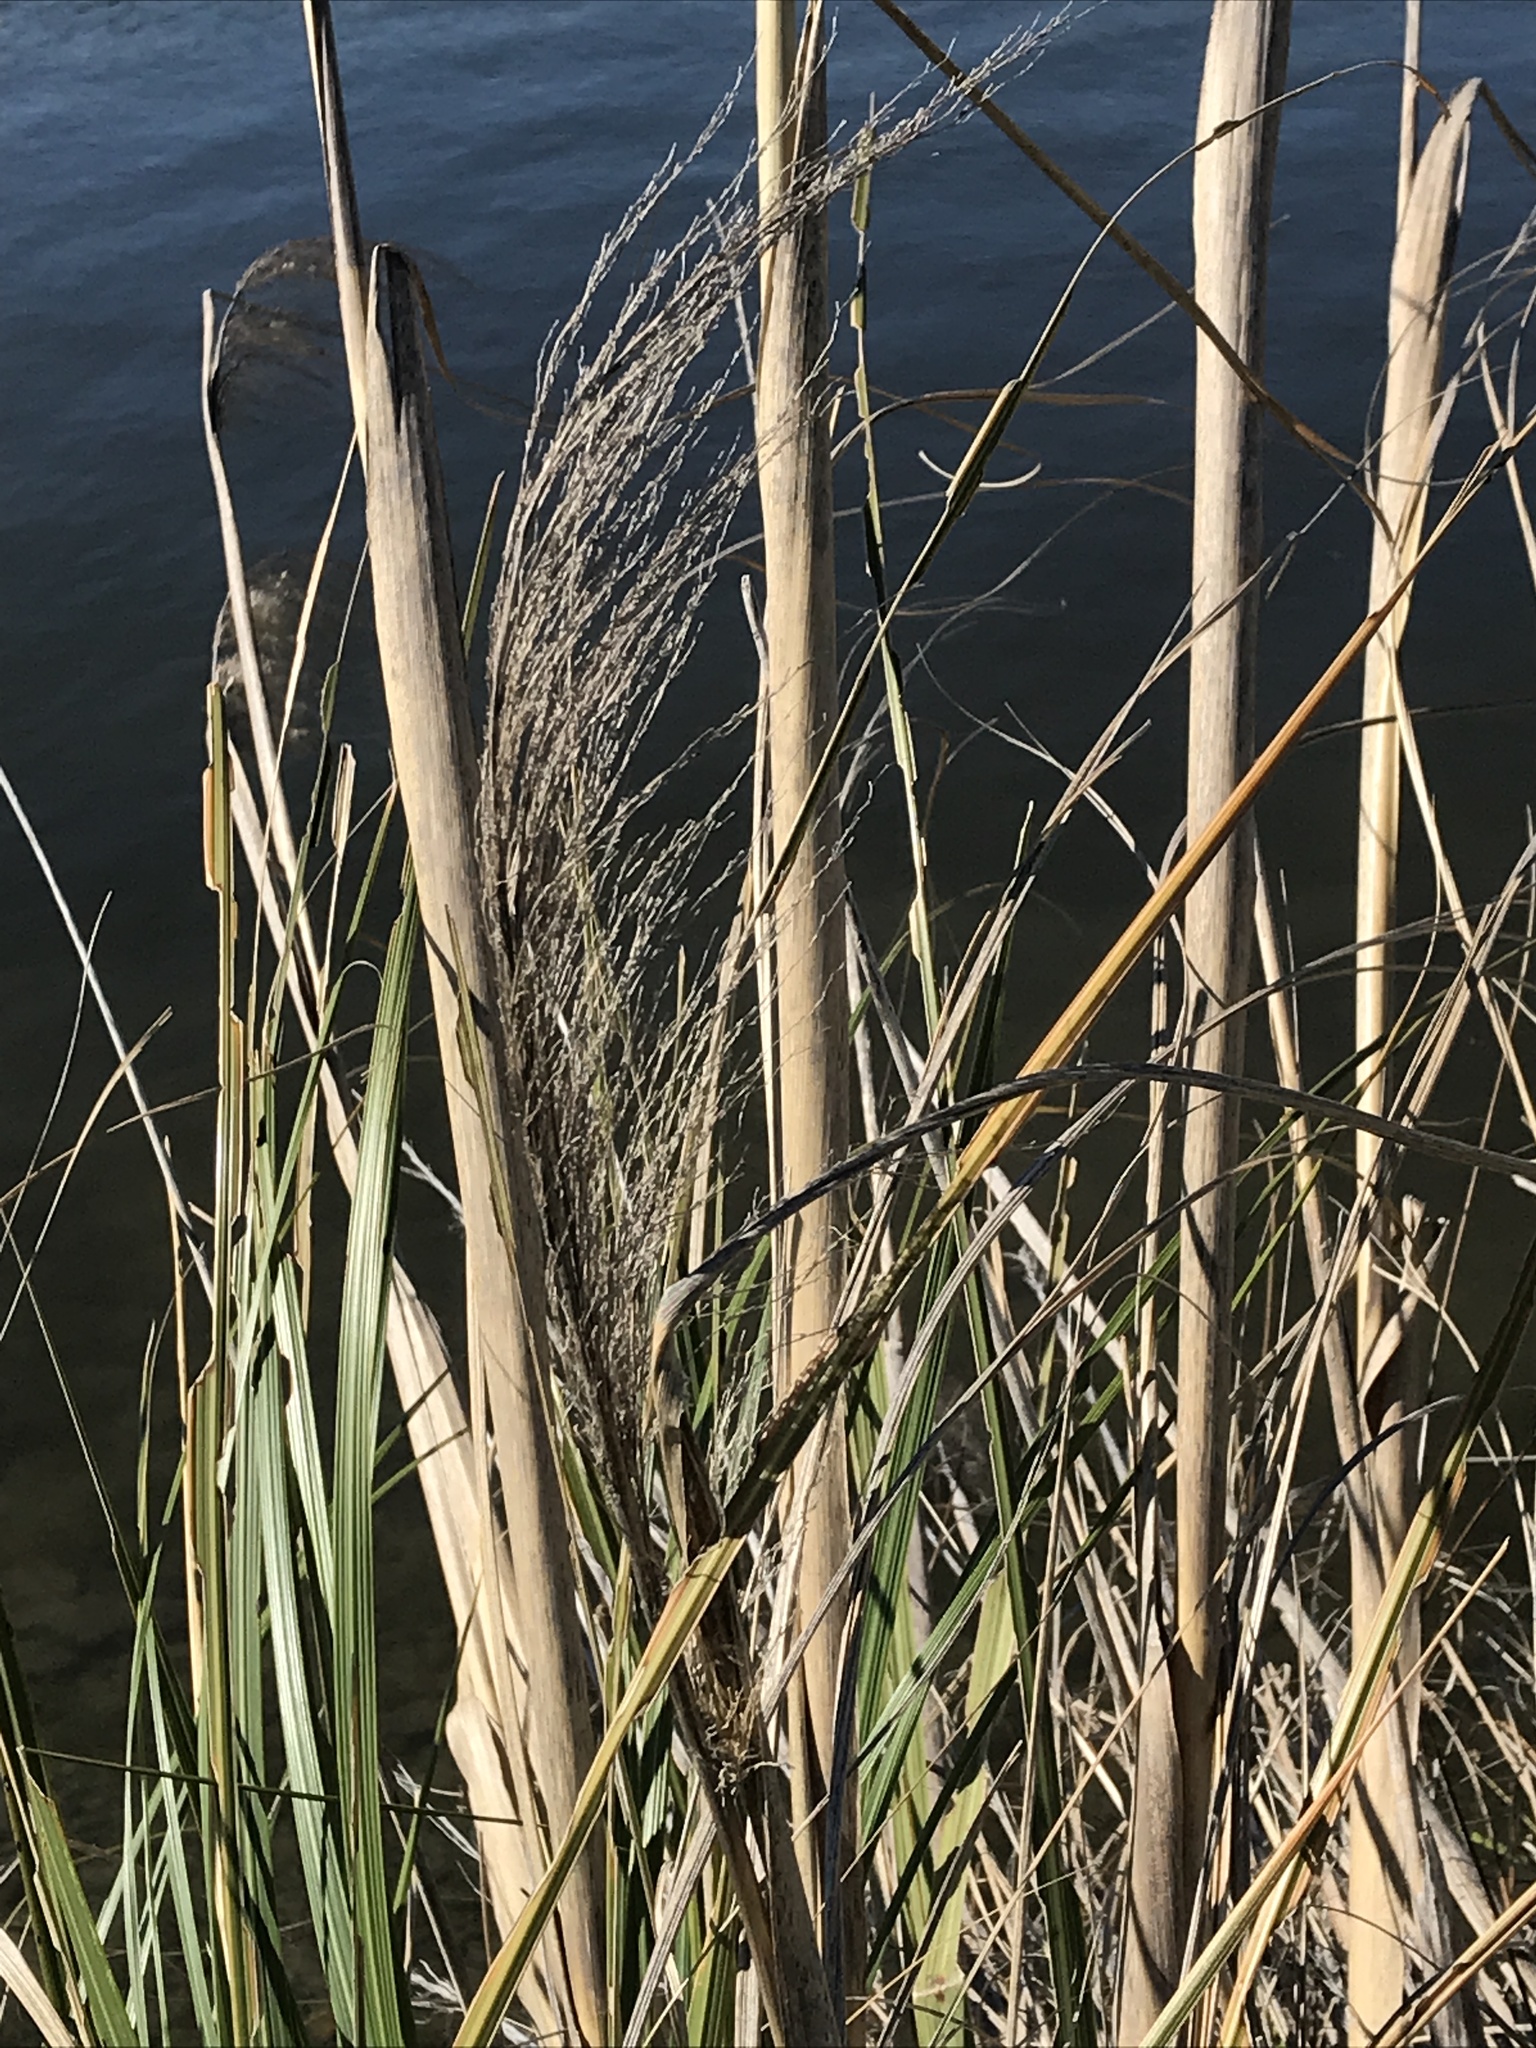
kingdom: Plantae
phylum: Tracheophyta
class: Liliopsida
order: Poales
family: Poaceae
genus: Austroderia
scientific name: Austroderia richardii
